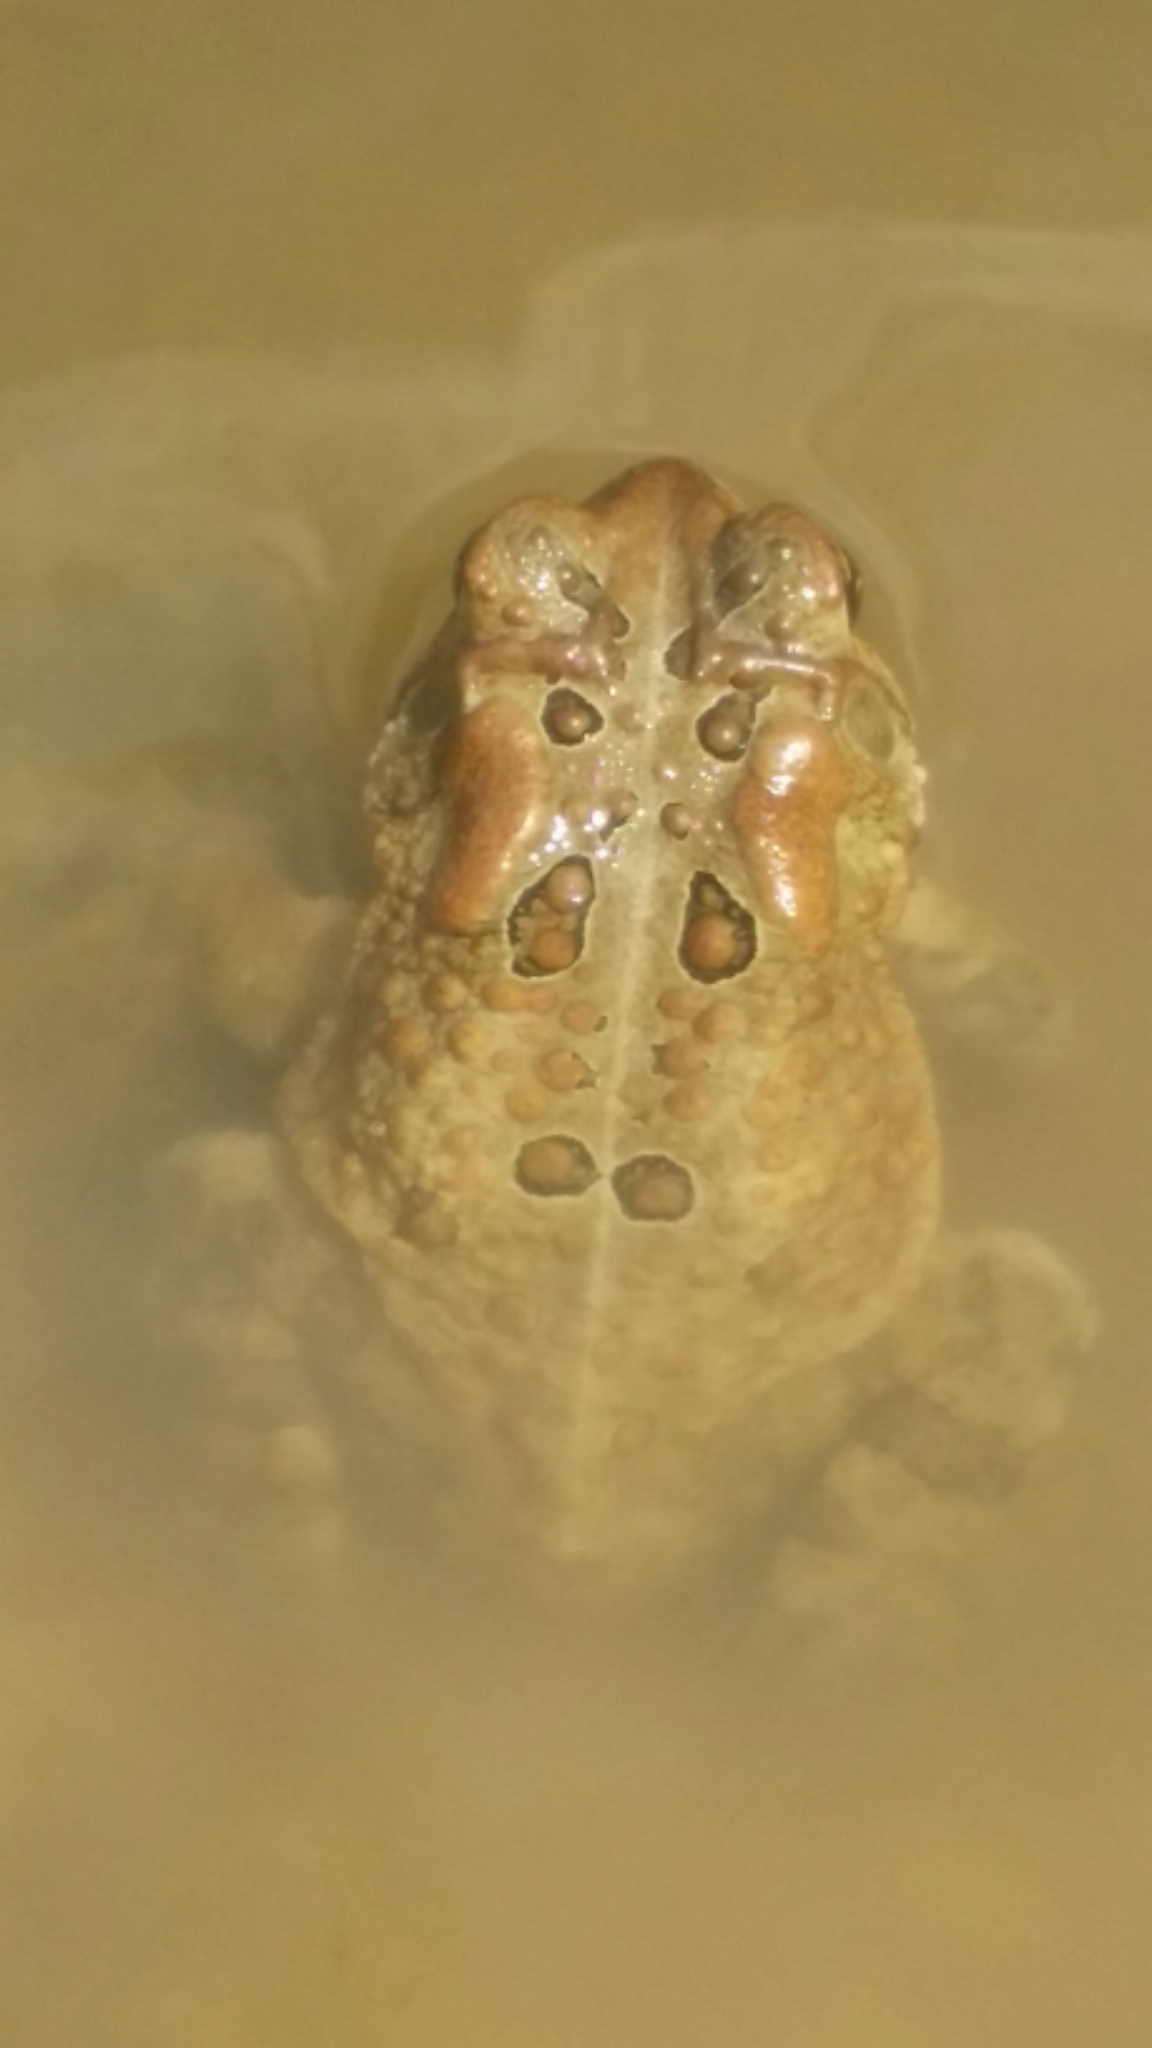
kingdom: Animalia
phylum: Chordata
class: Amphibia
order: Anura
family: Bufonidae
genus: Anaxyrus
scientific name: Anaxyrus americanus
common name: American toad
